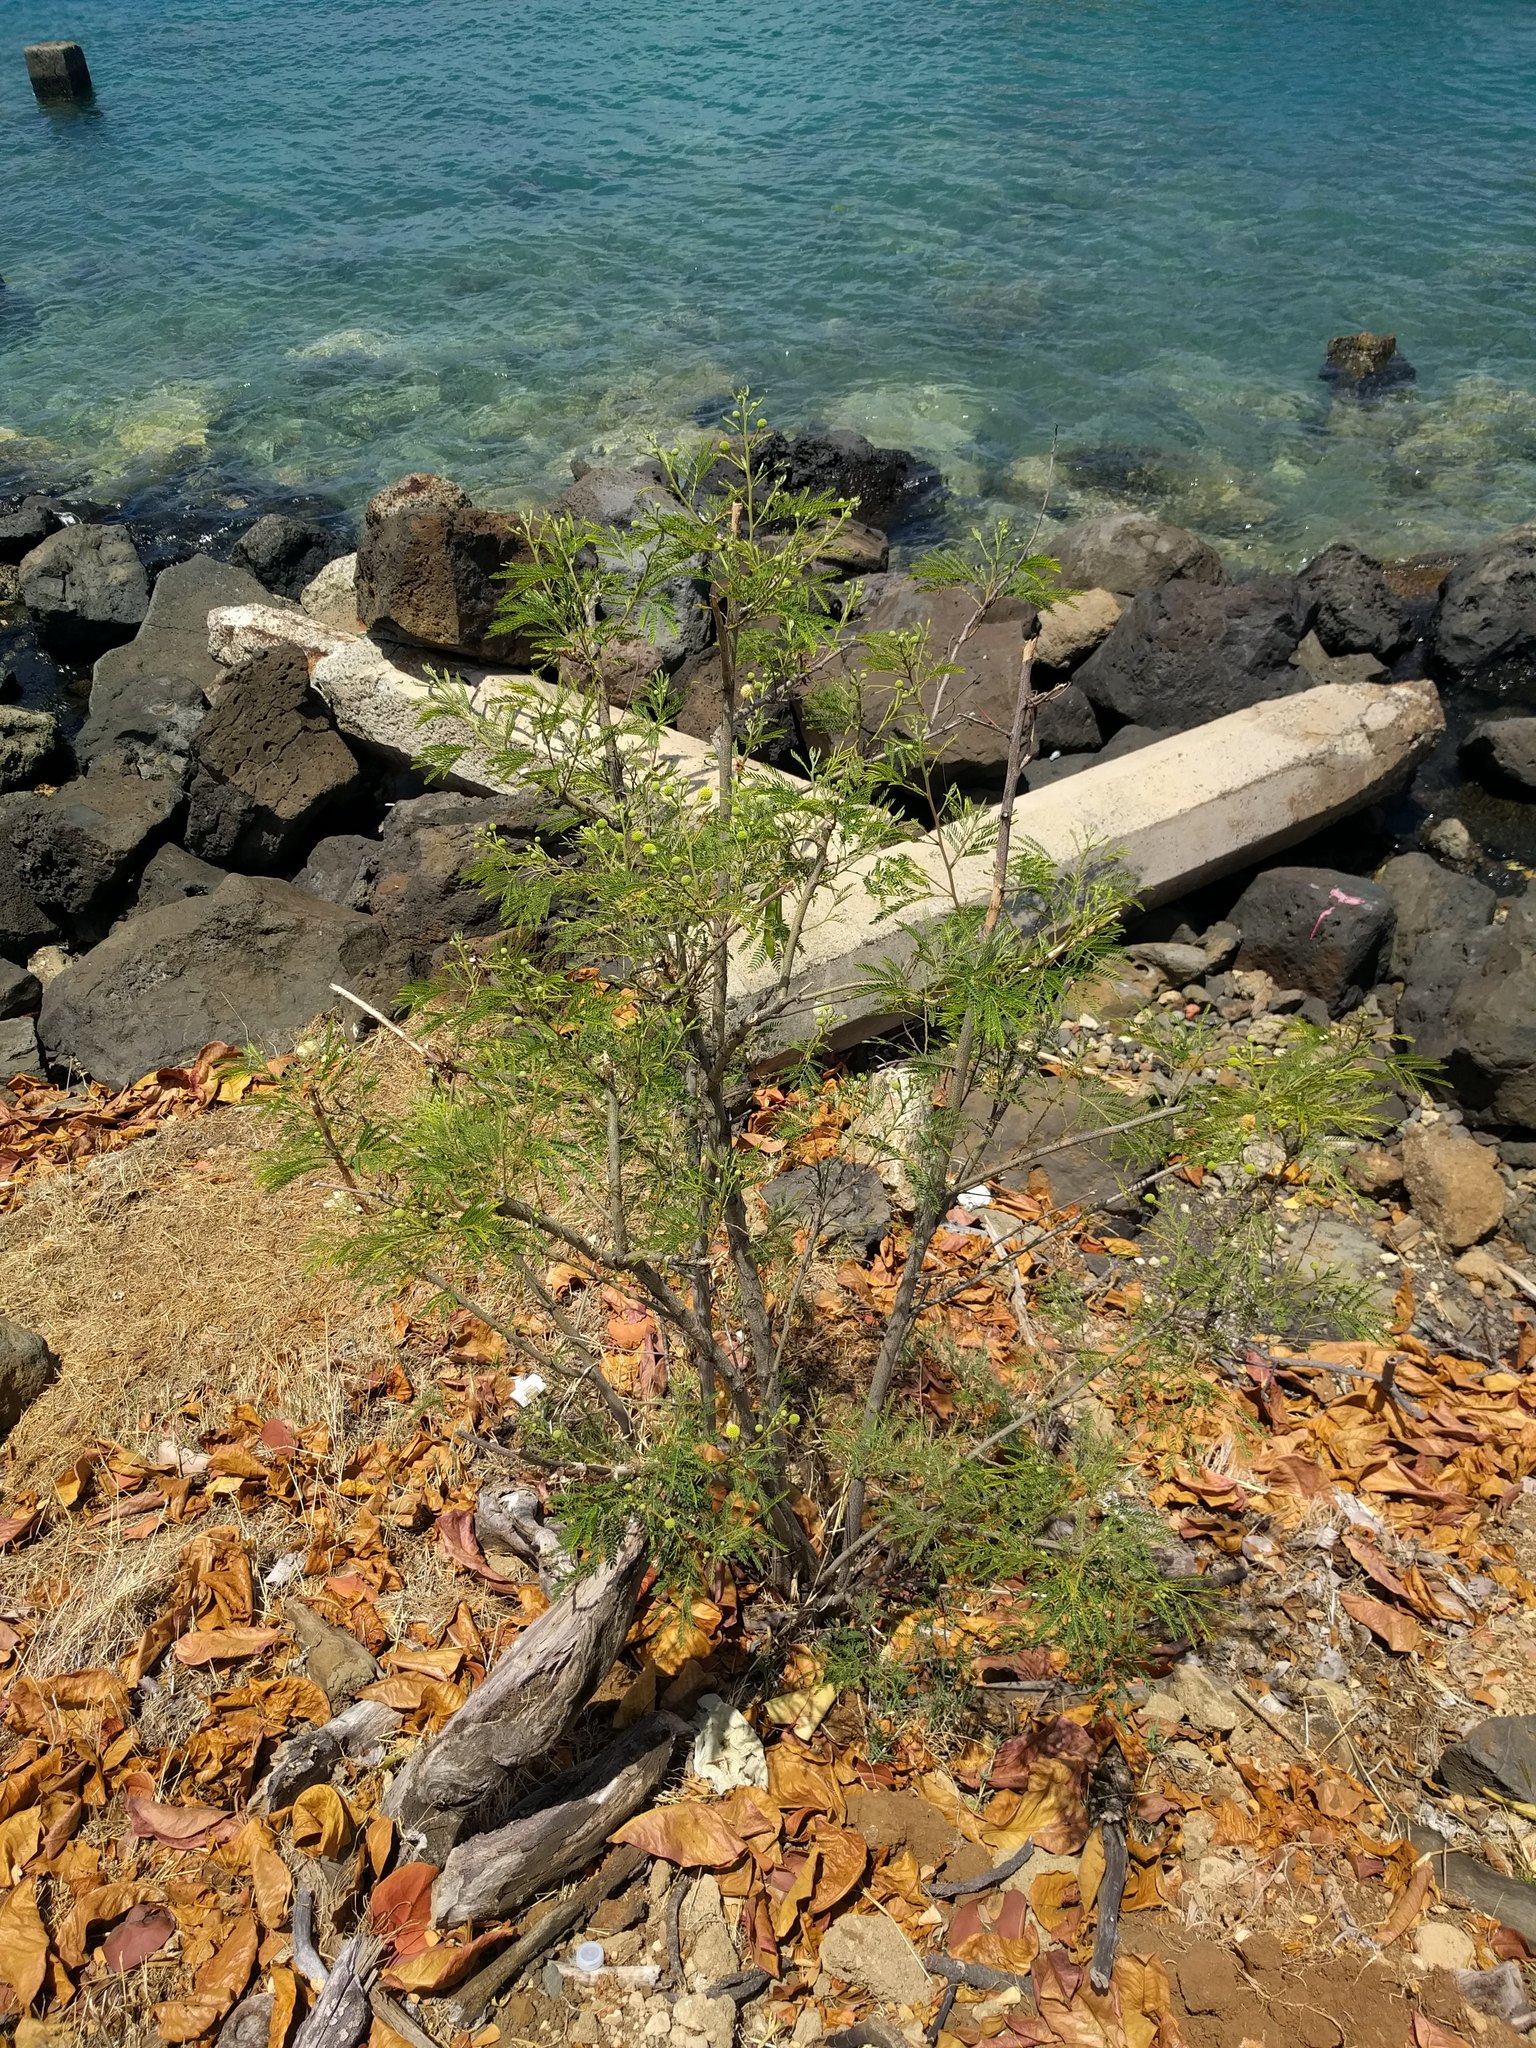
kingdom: Plantae
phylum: Tracheophyta
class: Magnoliopsida
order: Fabales
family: Fabaceae
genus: Leucaena
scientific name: Leucaena leucocephala
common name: White leadtree
